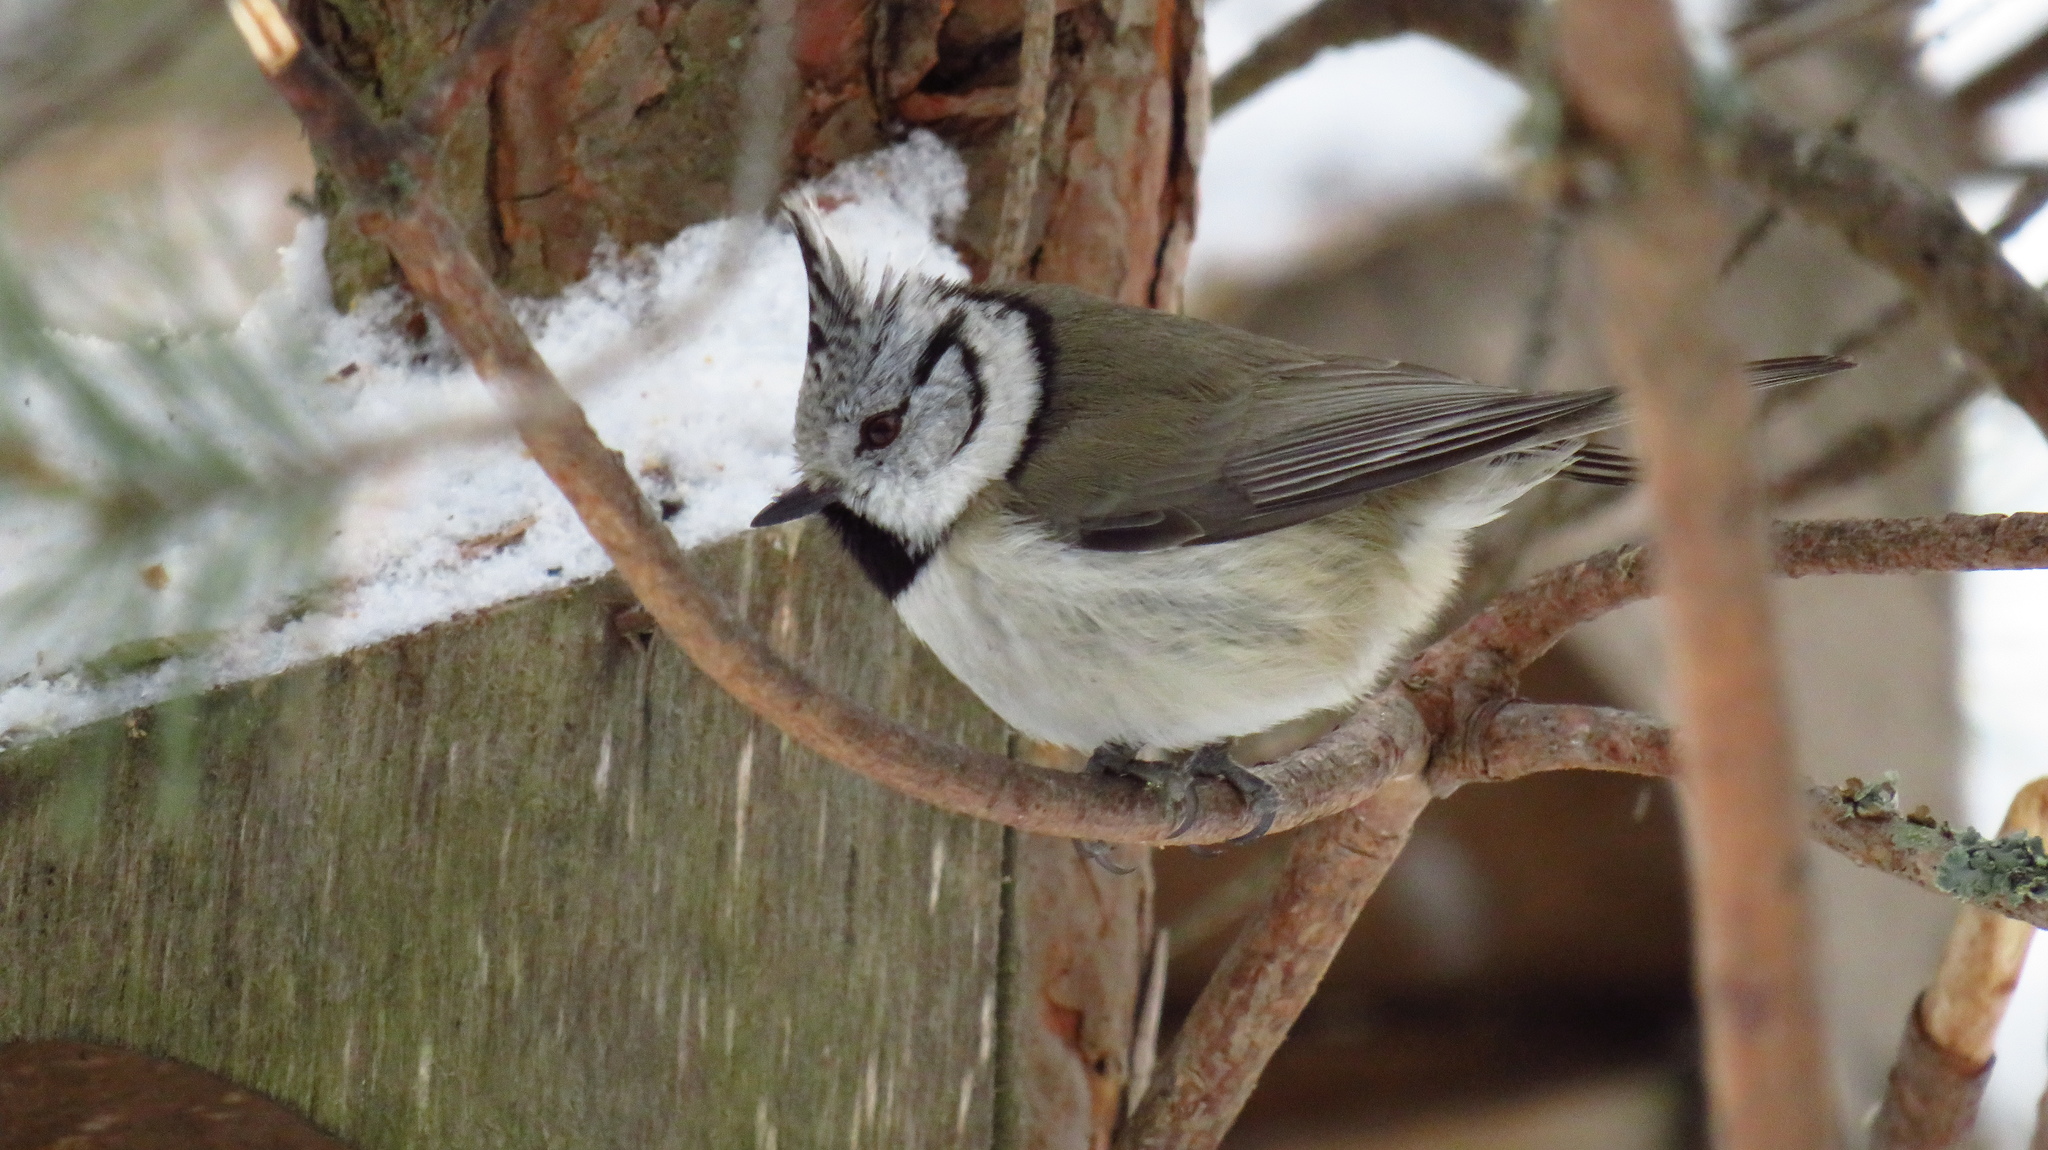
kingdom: Animalia
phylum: Chordata
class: Aves
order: Passeriformes
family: Paridae
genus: Lophophanes
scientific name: Lophophanes cristatus
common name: European crested tit
